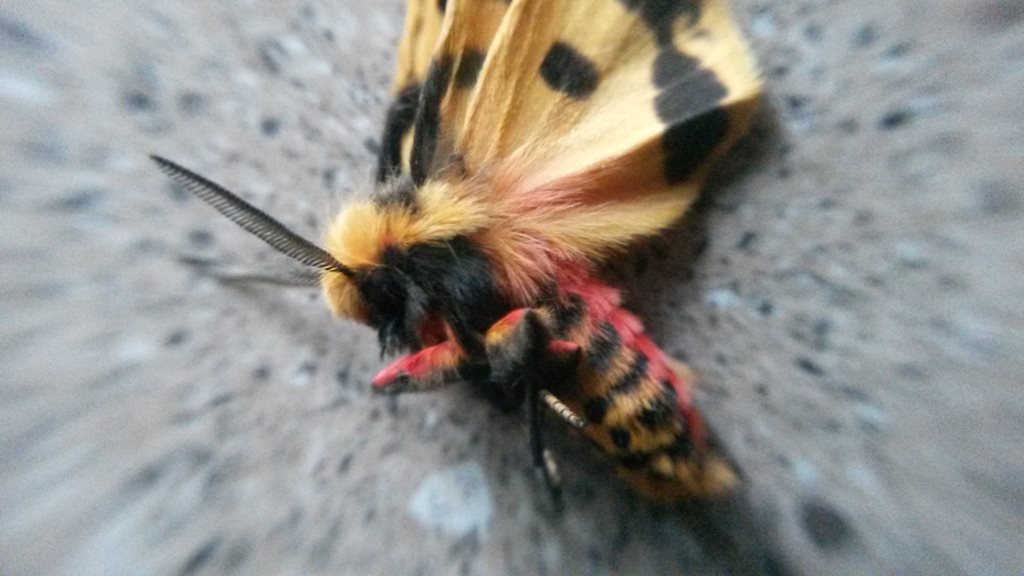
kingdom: Animalia
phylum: Arthropoda
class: Insecta
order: Lepidoptera
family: Erebidae
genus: Ardices
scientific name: Ardices curvata
